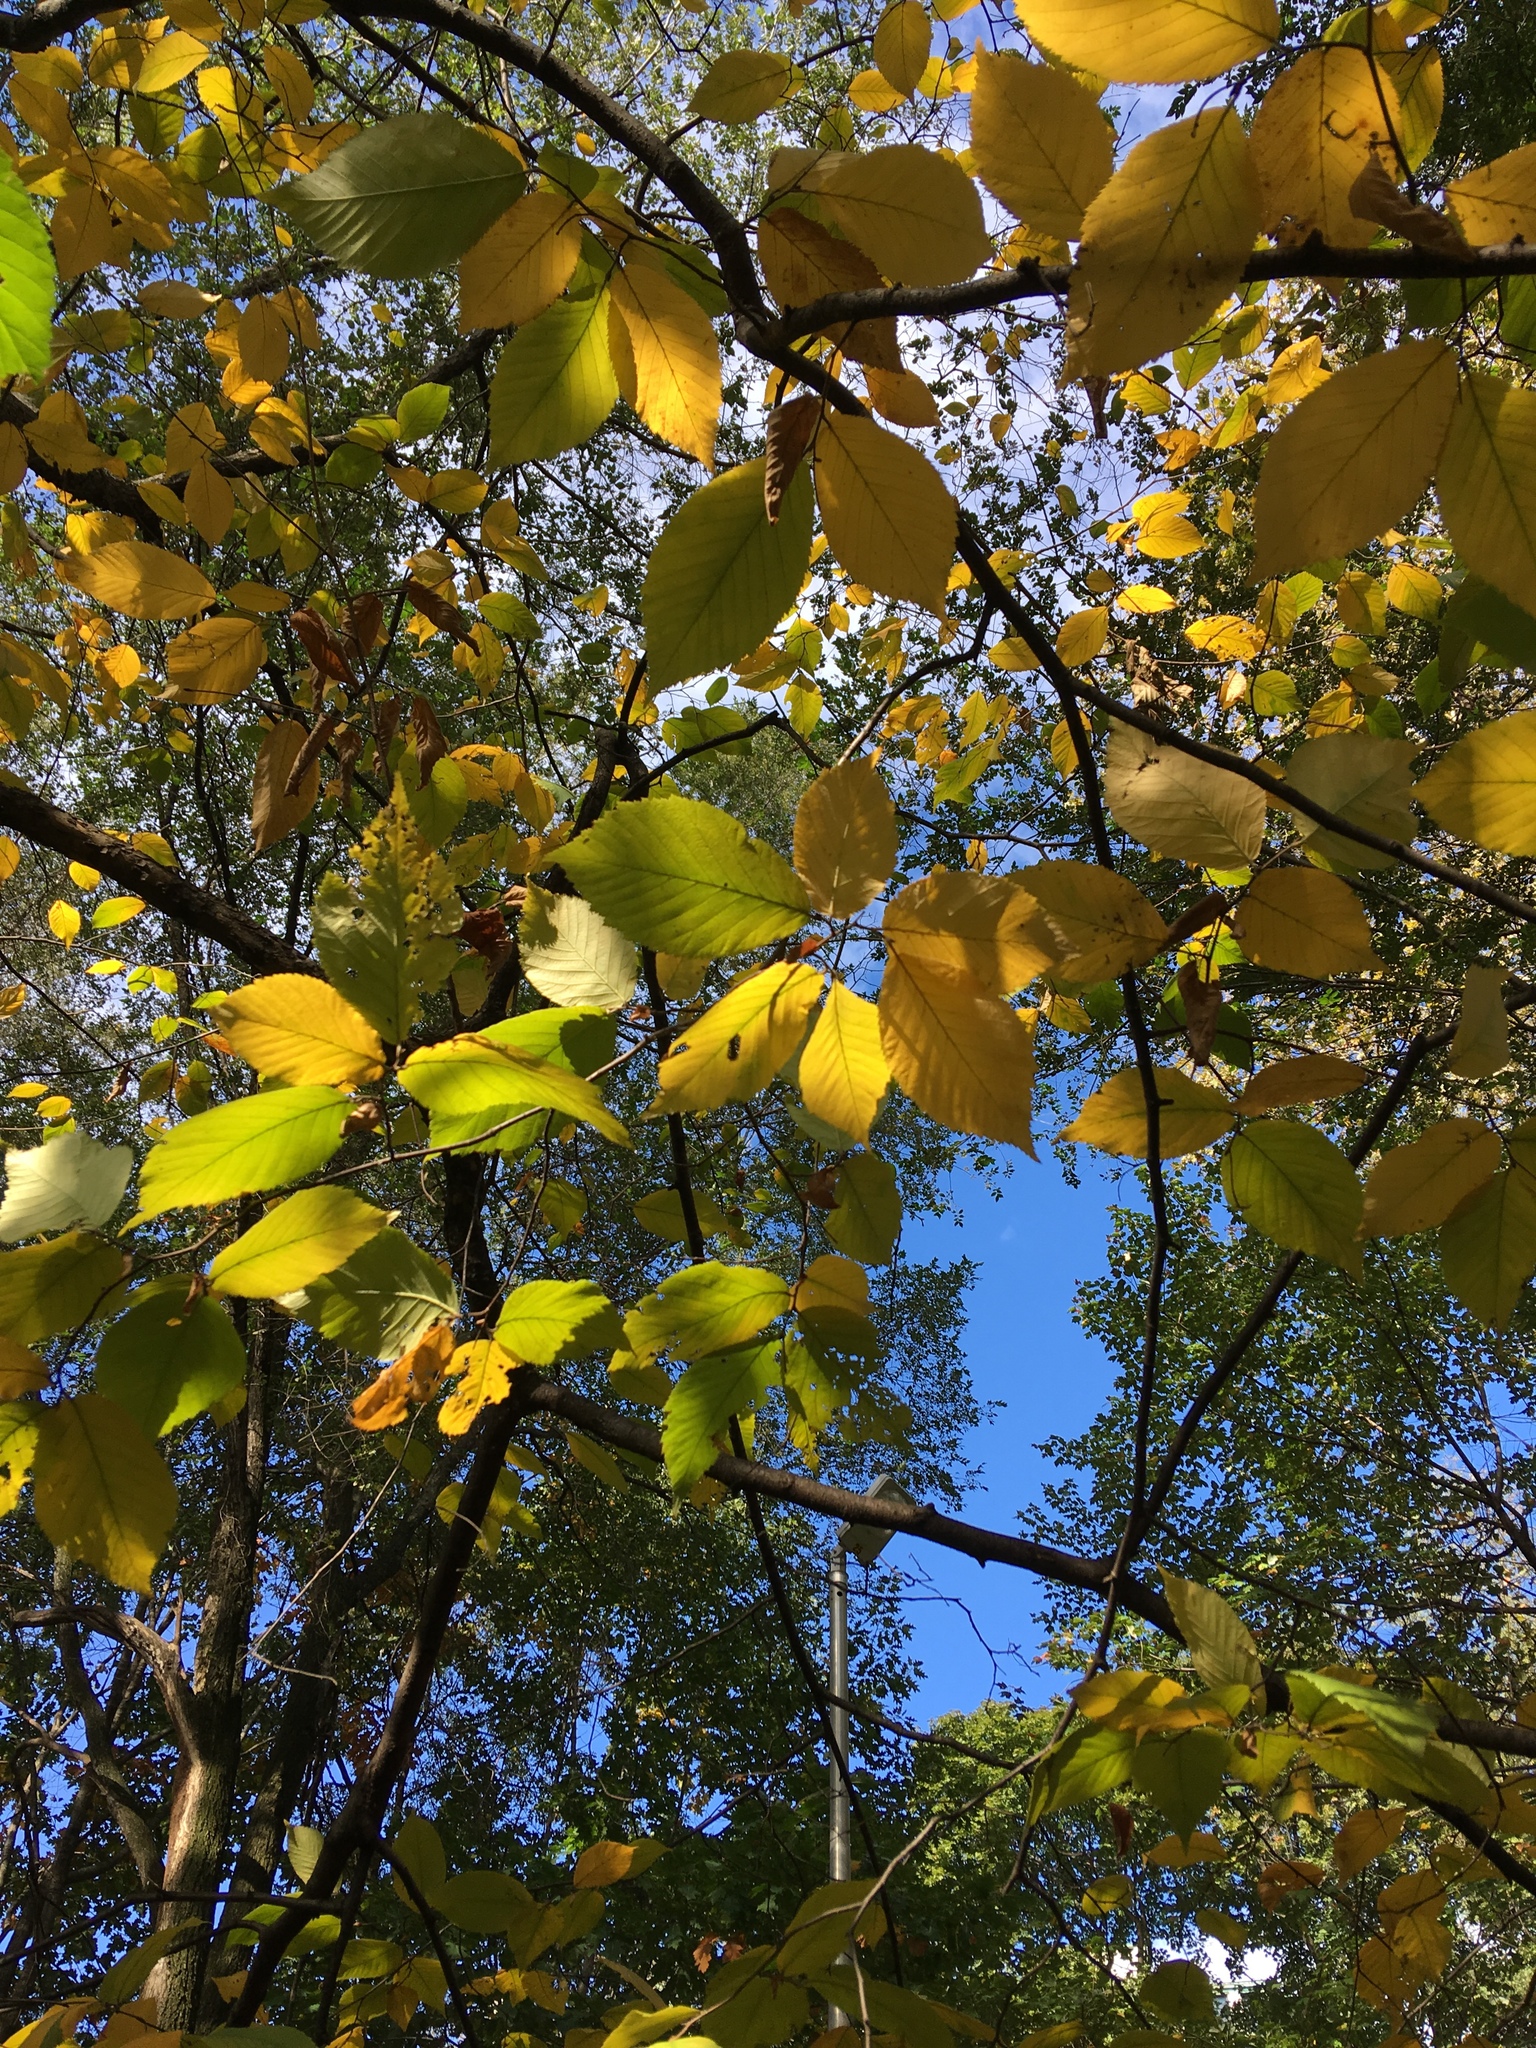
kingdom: Plantae
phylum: Tracheophyta
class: Magnoliopsida
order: Fagales
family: Betulaceae
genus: Ostrya
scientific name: Ostrya virginiana
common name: Ironwood
